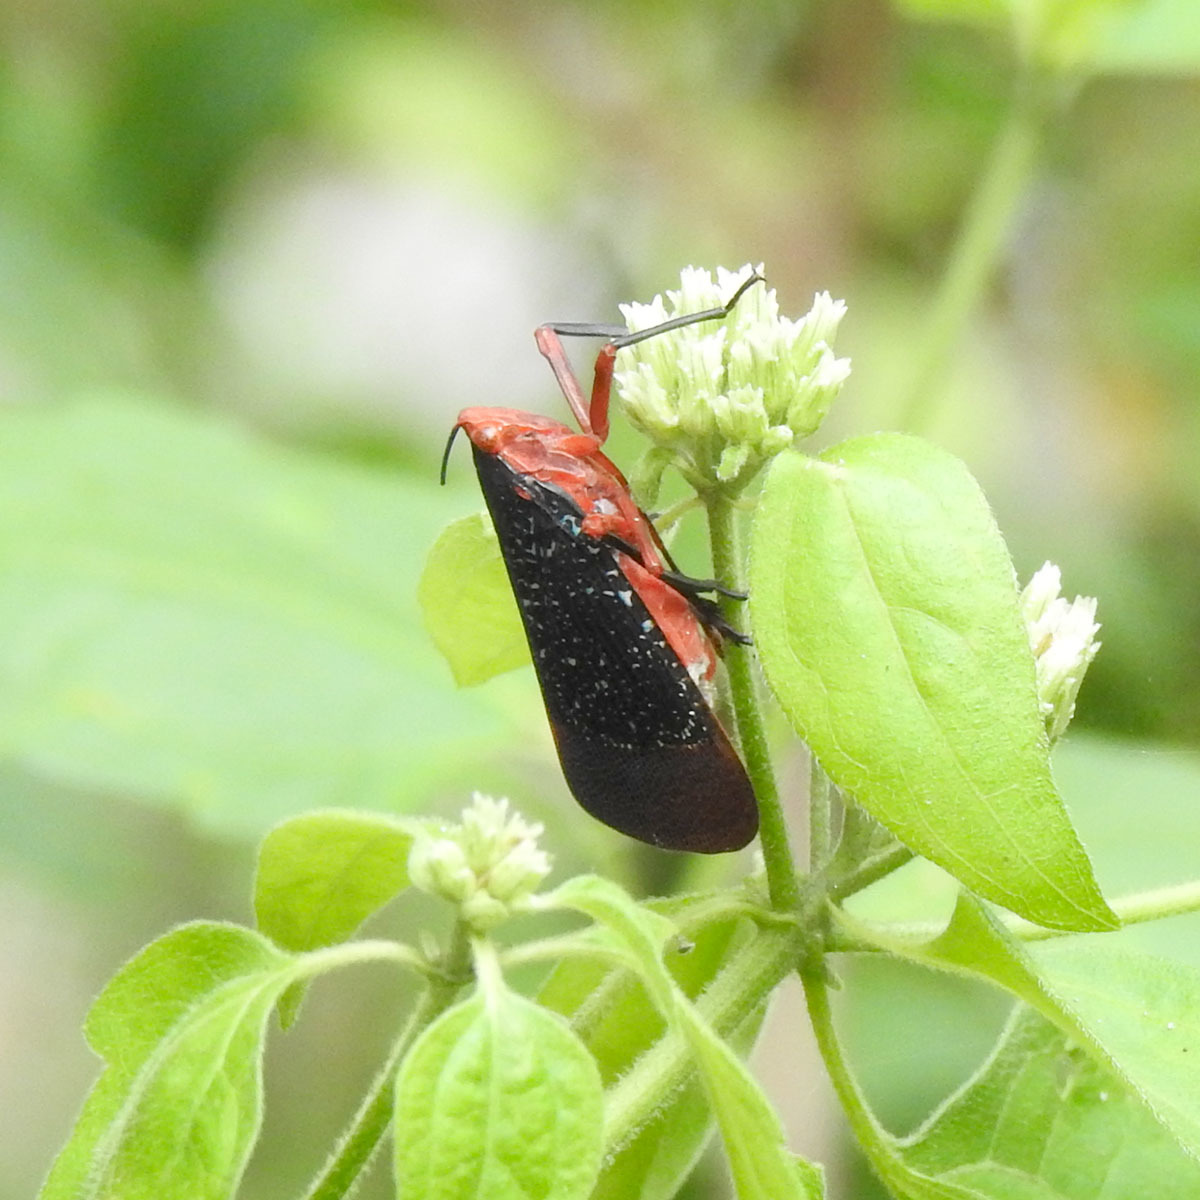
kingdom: Animalia
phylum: Arthropoda
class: Insecta
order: Hemiptera
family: Fulgoridae
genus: Kalidasa
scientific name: Kalidasa lanata
